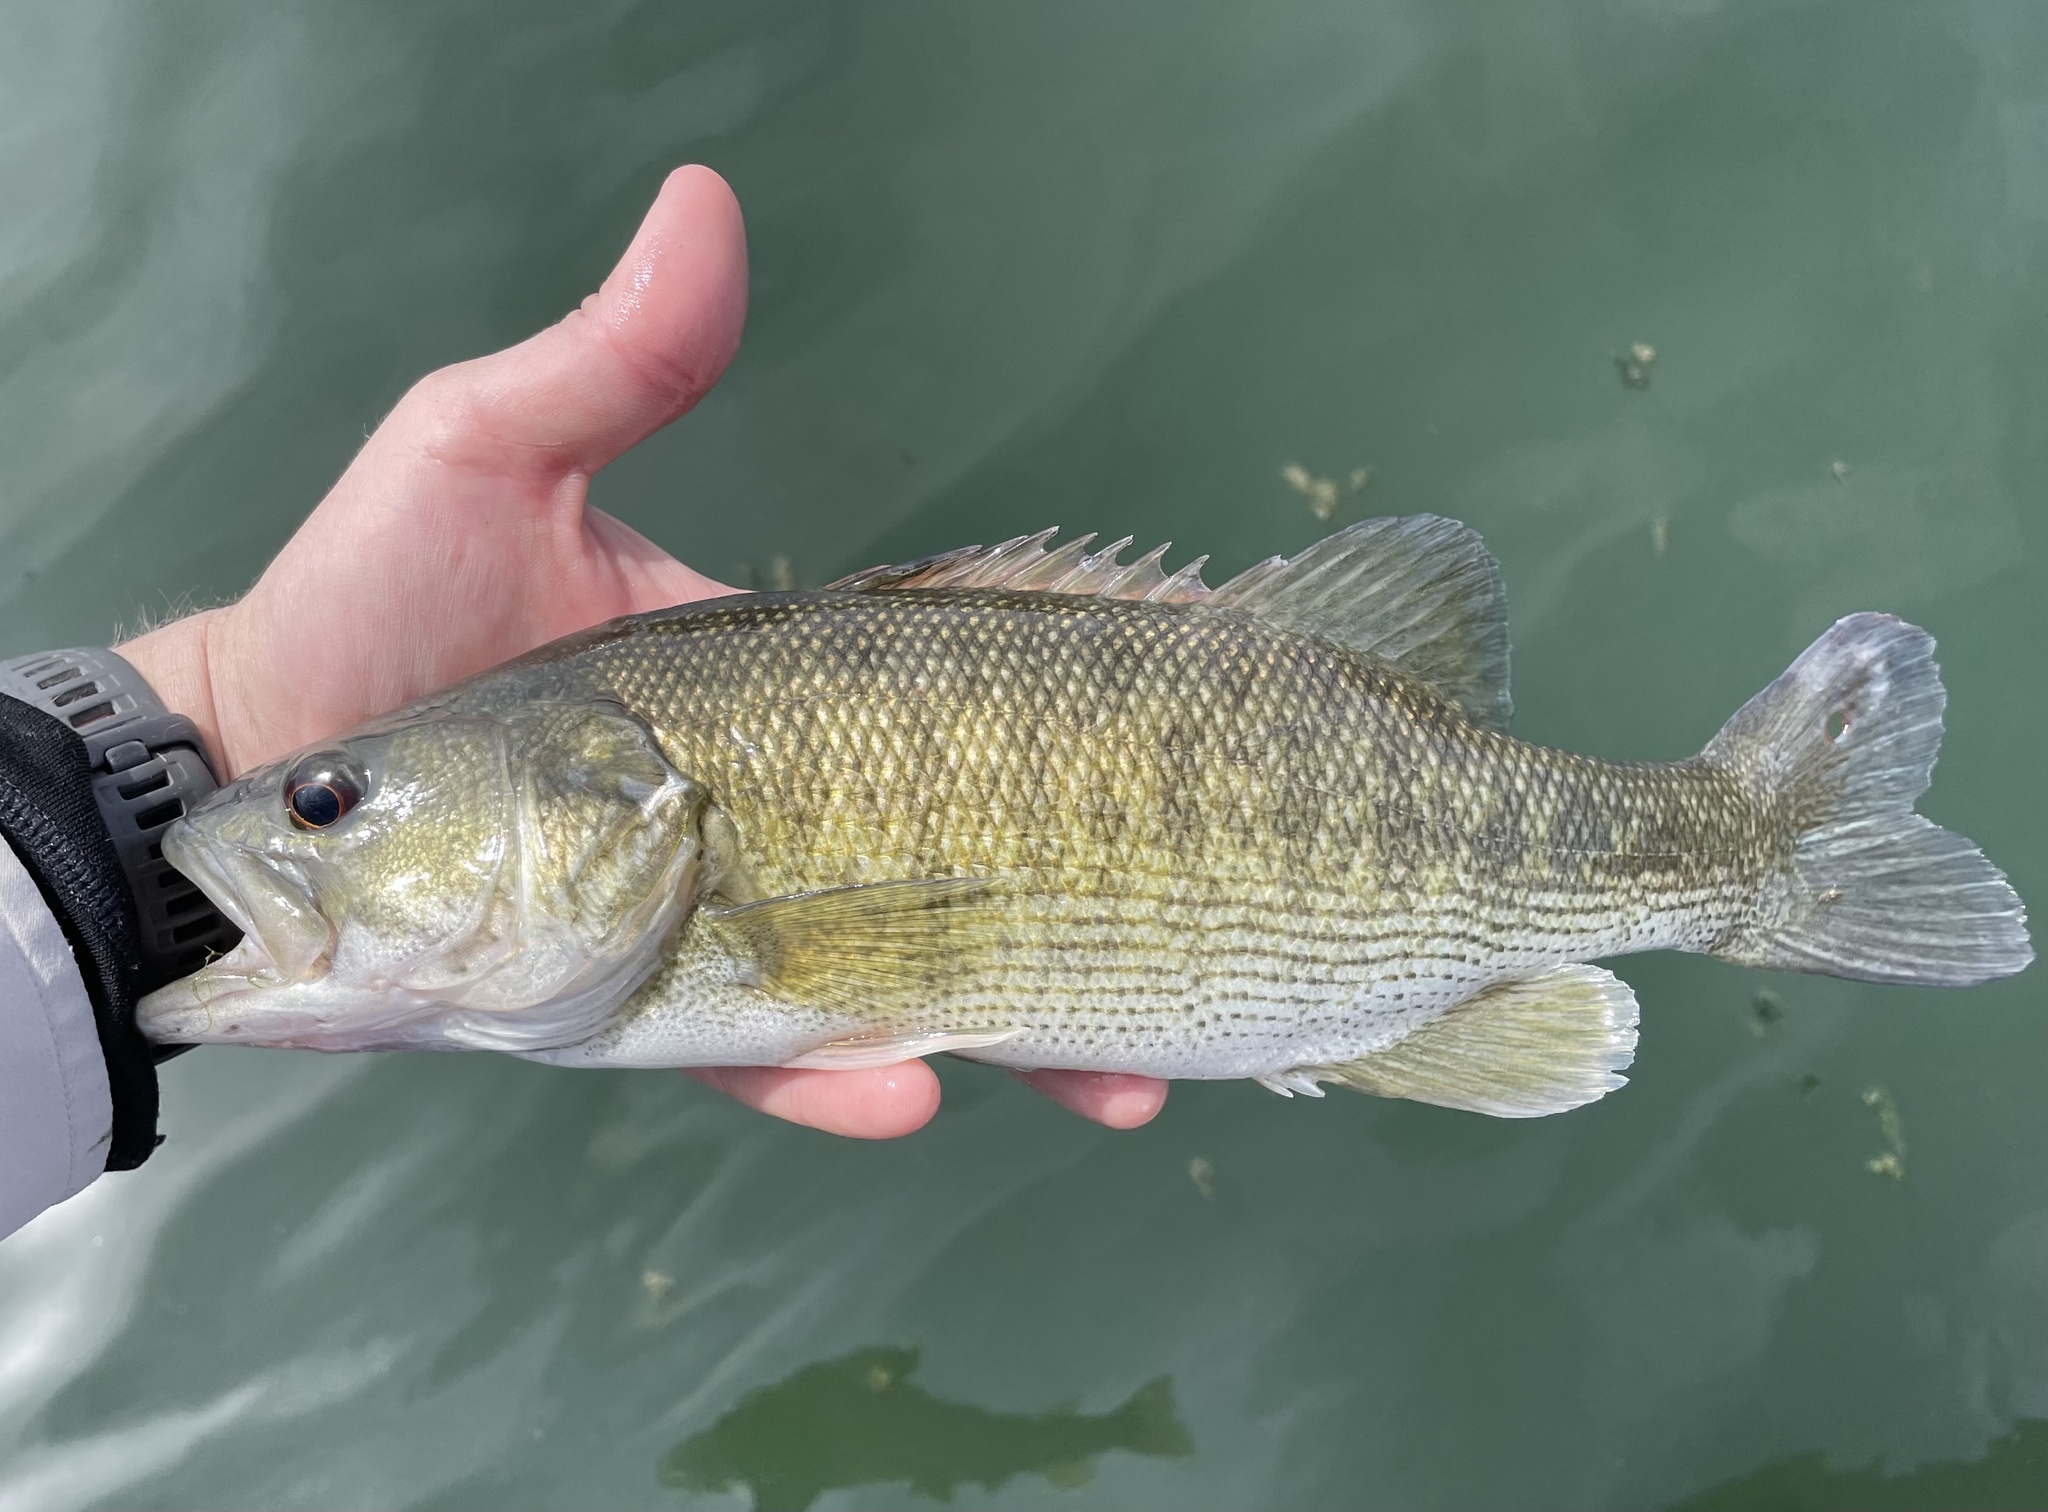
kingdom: Animalia
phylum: Chordata
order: Perciformes
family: Centrarchidae
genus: Micropterus
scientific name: Micropterus treculii
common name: Guadalupe bass
